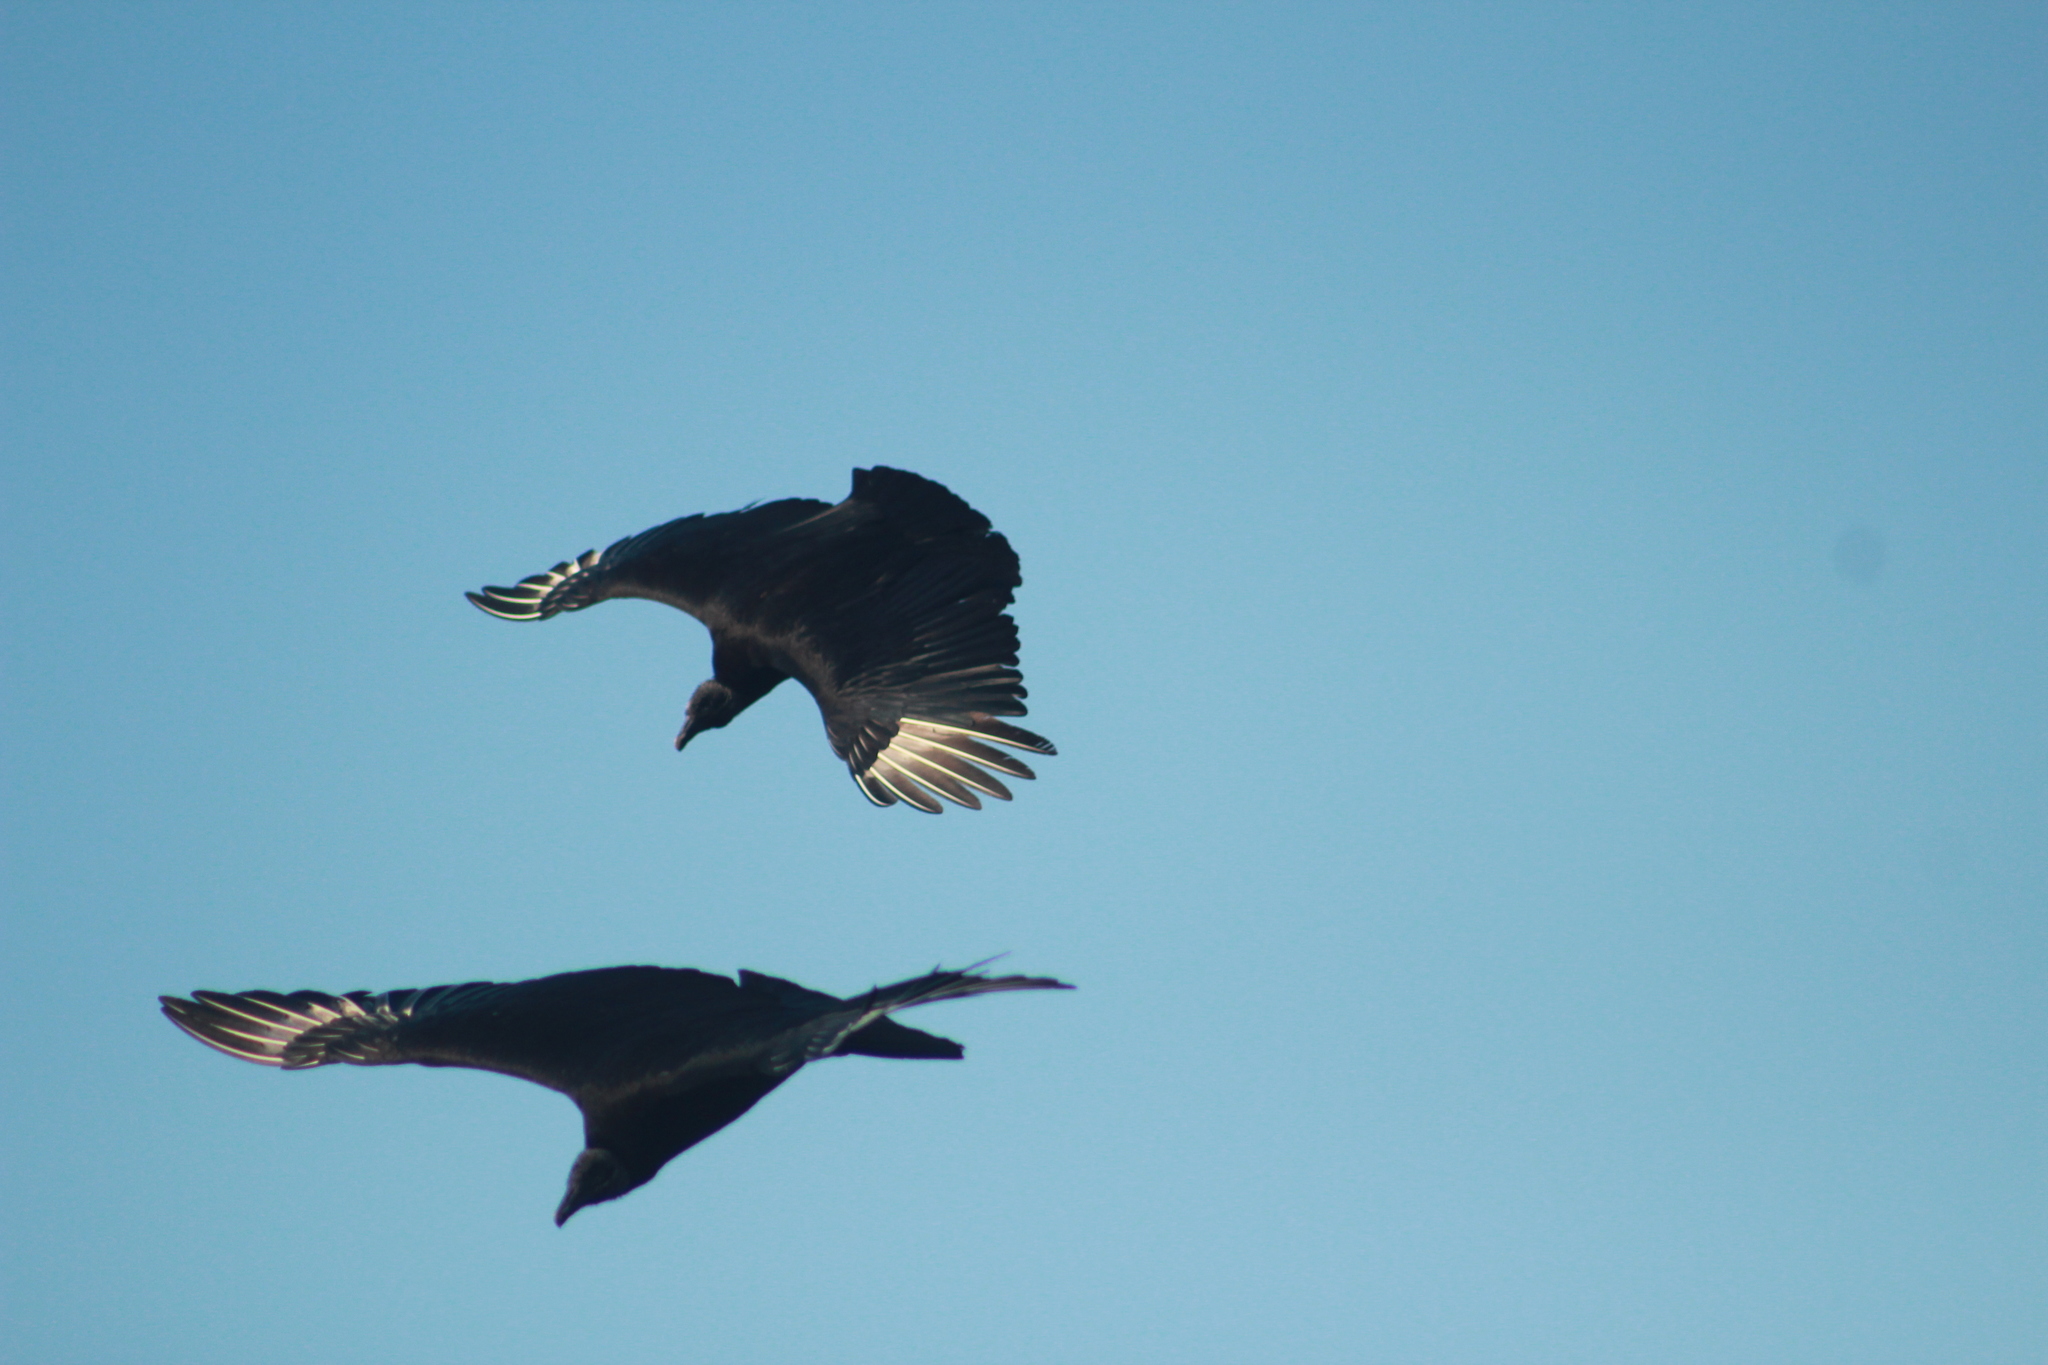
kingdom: Animalia
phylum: Chordata
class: Aves
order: Accipitriformes
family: Cathartidae
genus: Coragyps
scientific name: Coragyps atratus
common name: Black vulture
